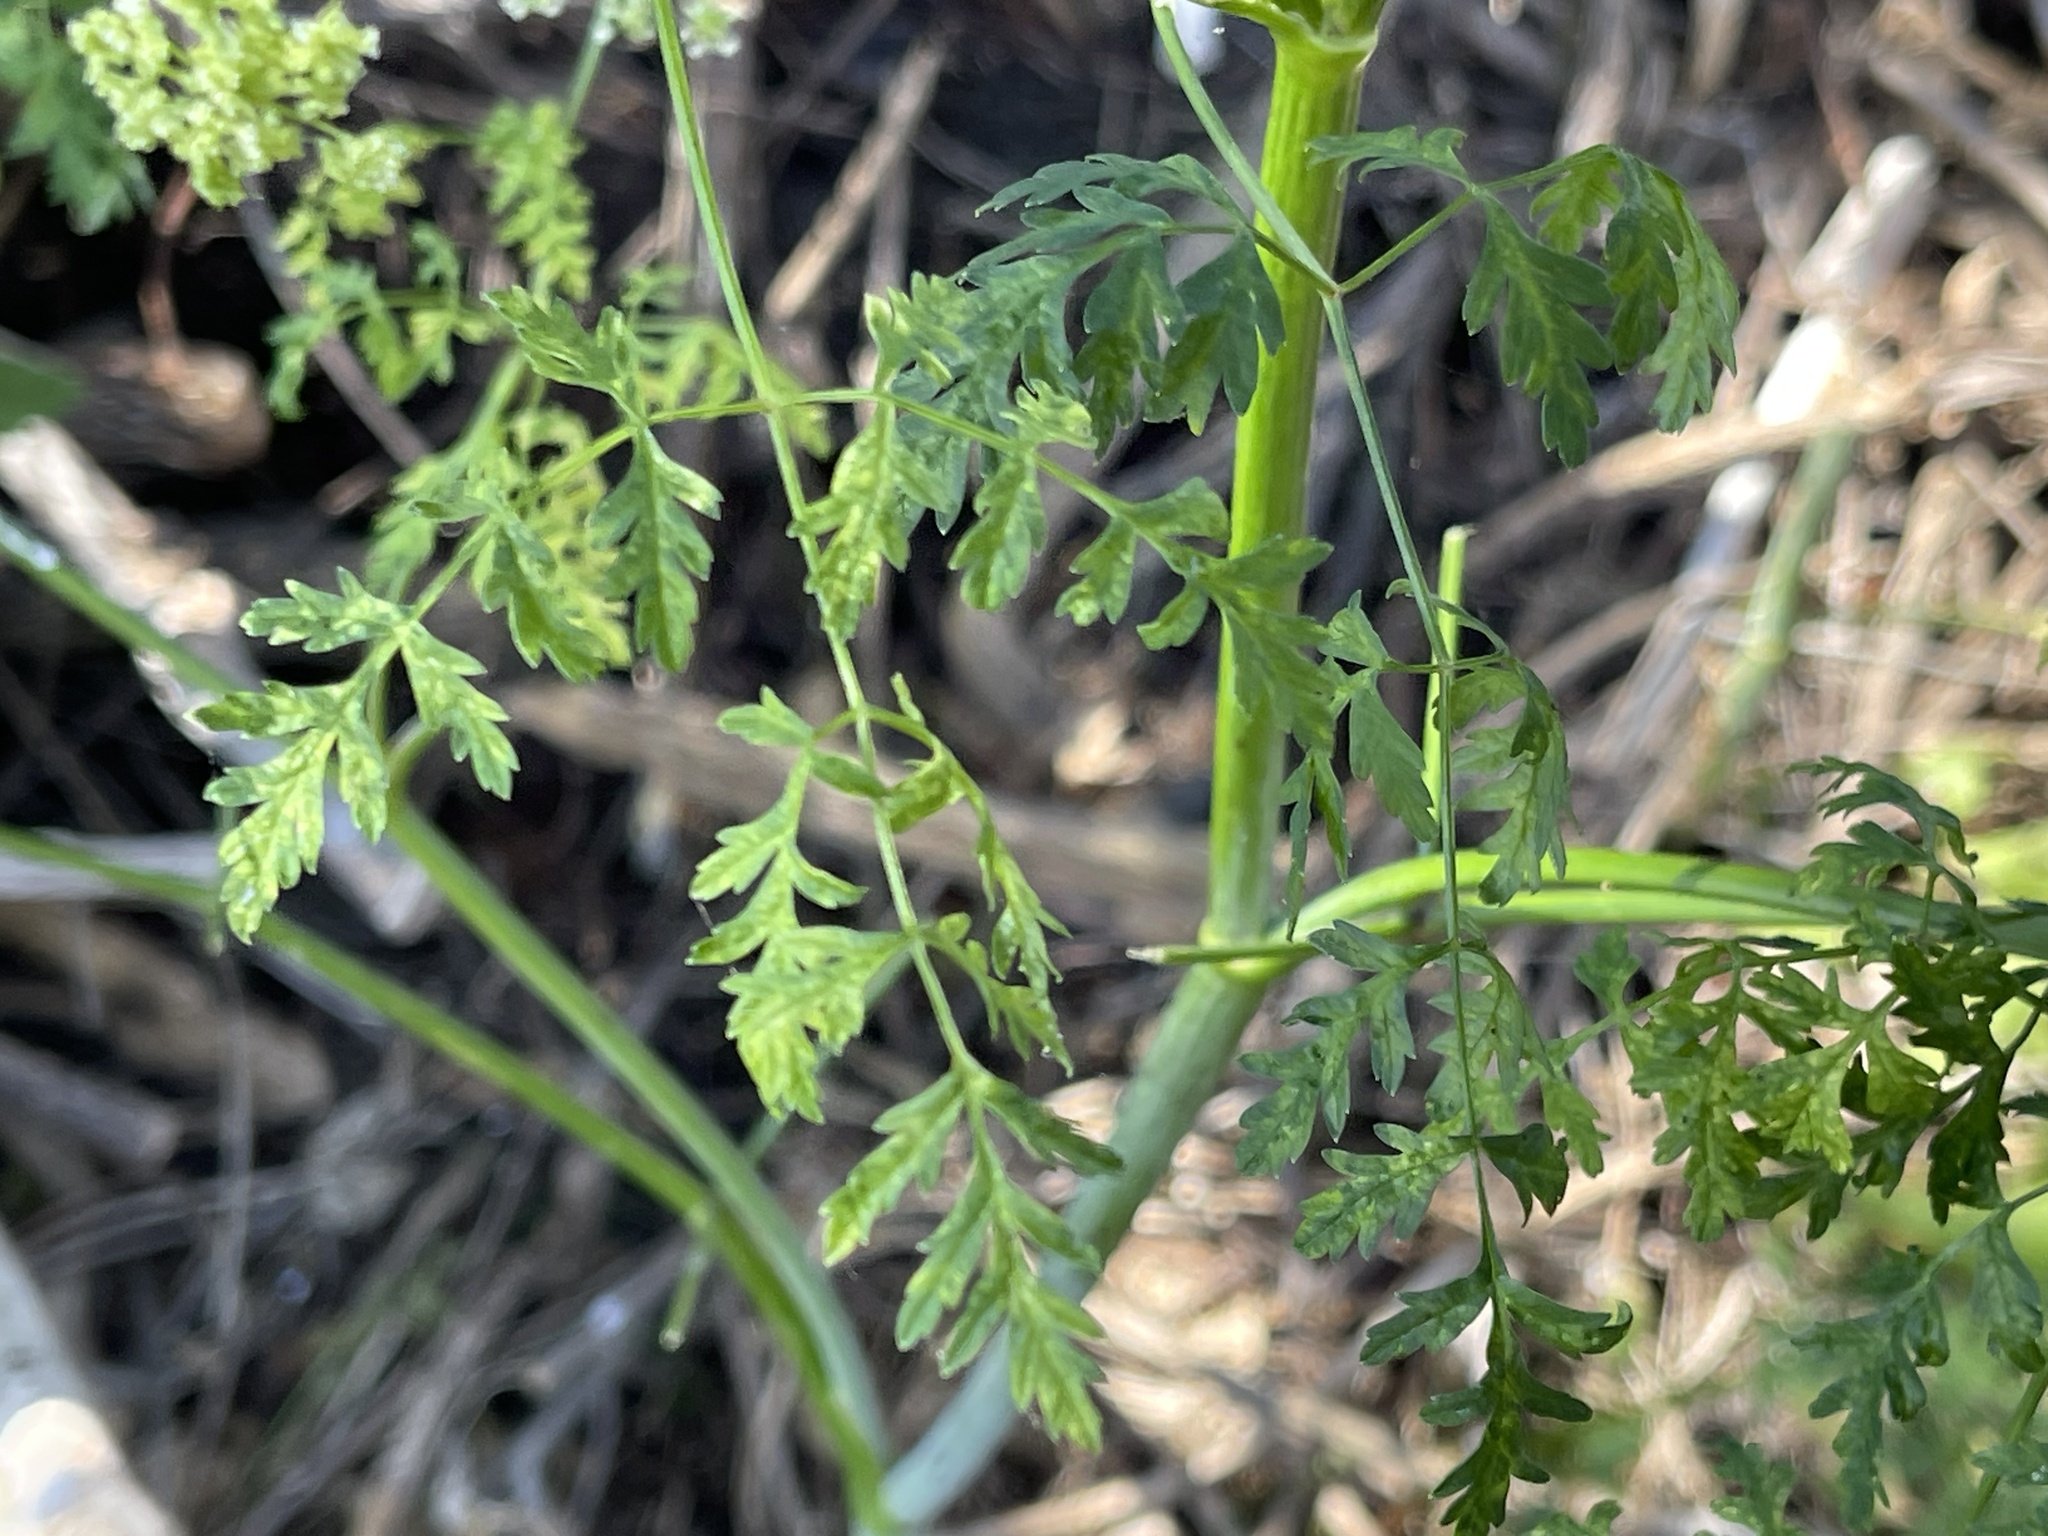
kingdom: Plantae
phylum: Tracheophyta
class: Magnoliopsida
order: Apiales
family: Apiaceae
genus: Conium
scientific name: Conium maculatum
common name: Hemlock
